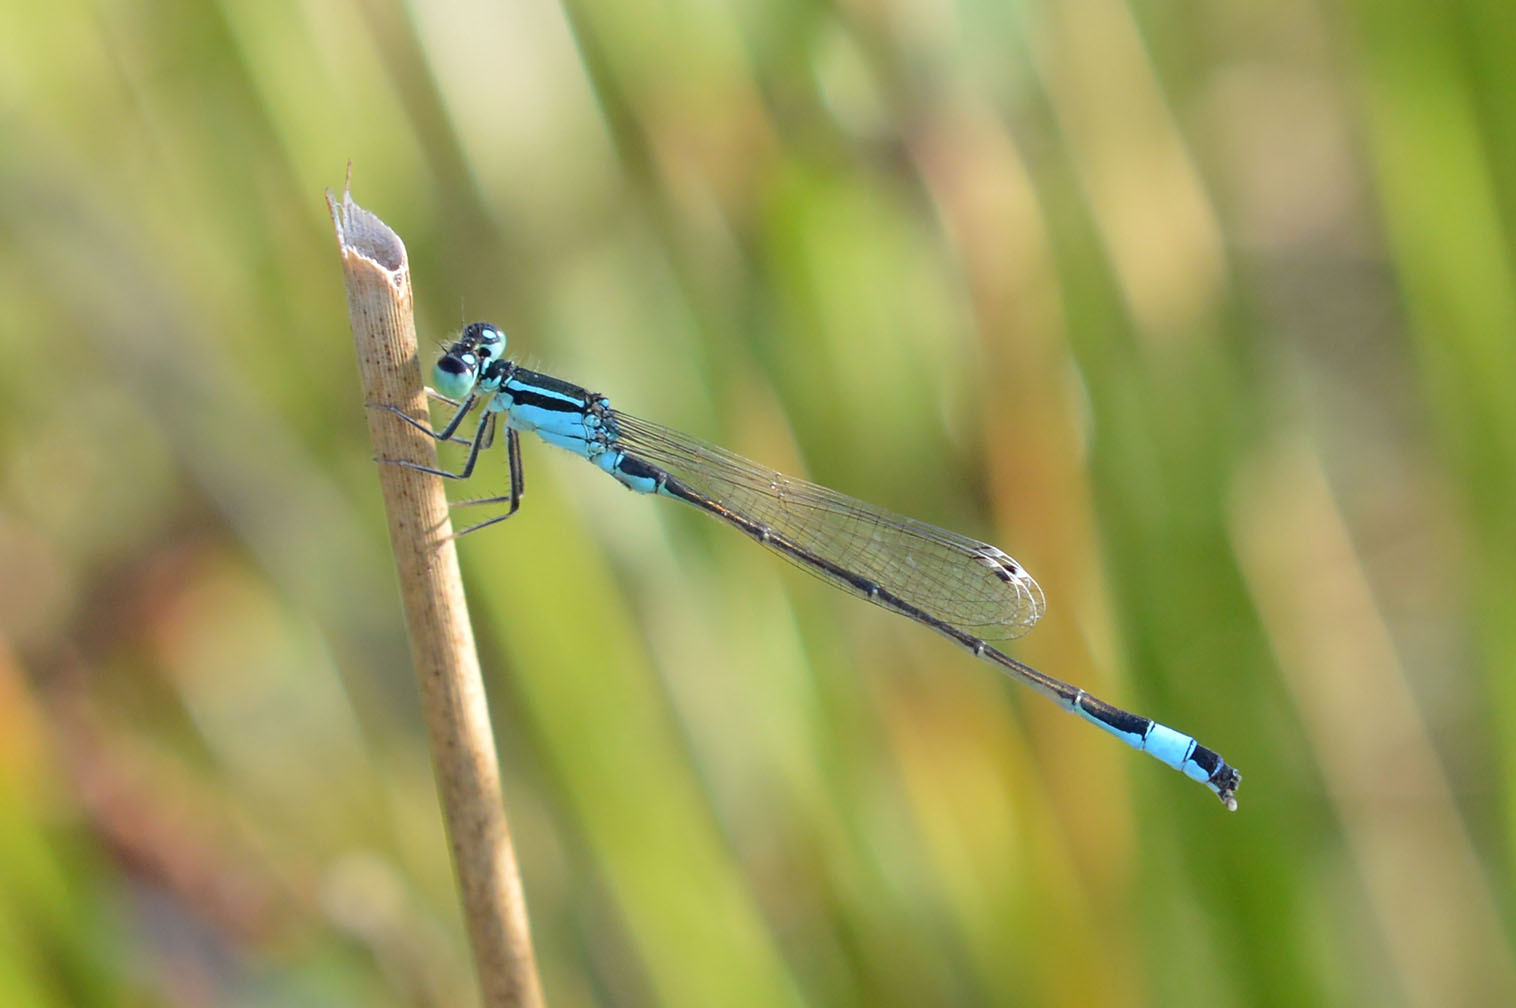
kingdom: Animalia
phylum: Arthropoda
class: Insecta
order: Odonata
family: Coenagrionidae
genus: Ischnura
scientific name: Ischnura elegans
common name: Blue-tailed damselfly
